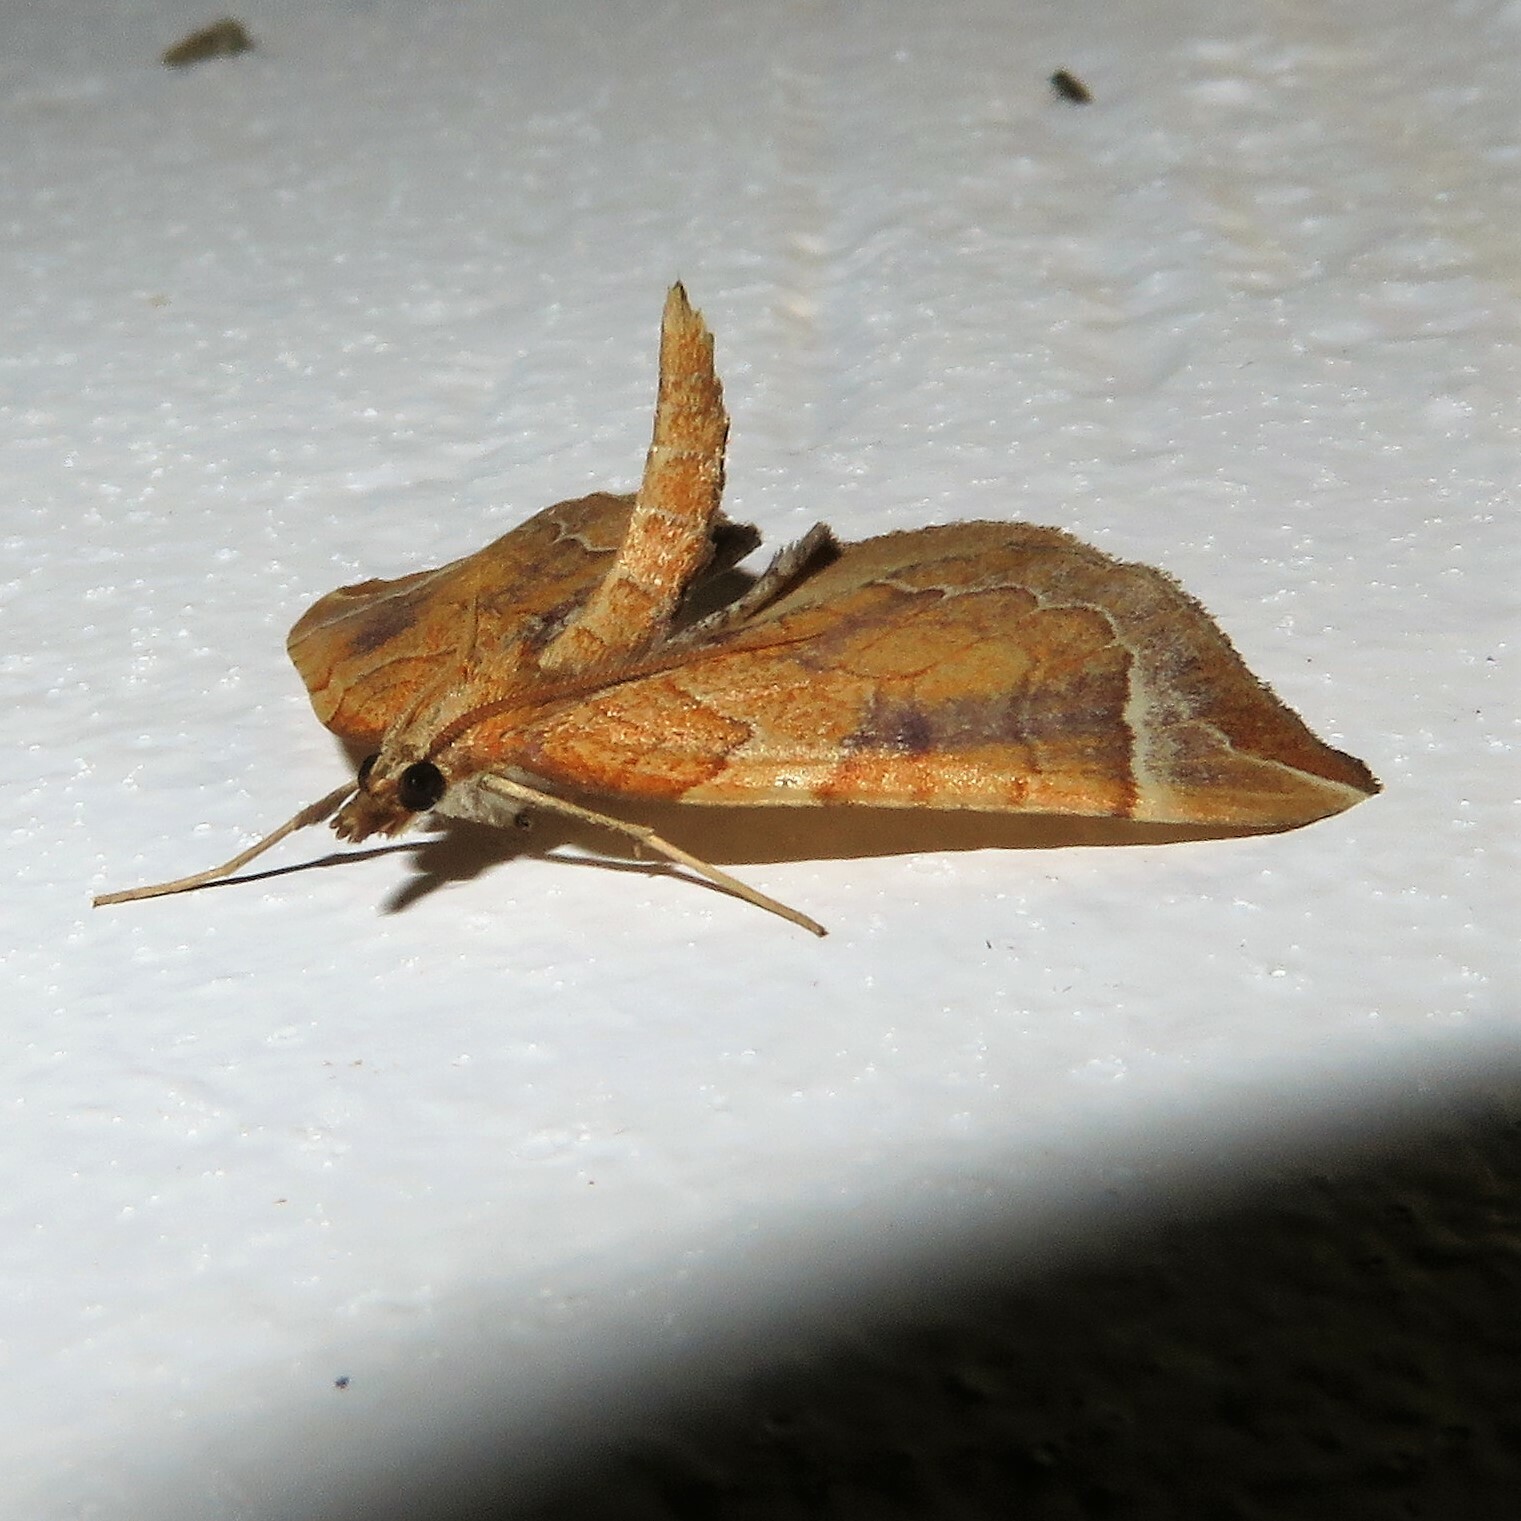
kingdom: Animalia
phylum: Arthropoda
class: Insecta
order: Lepidoptera
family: Geometridae
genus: Eulithis
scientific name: Eulithis testata
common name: Chevron
